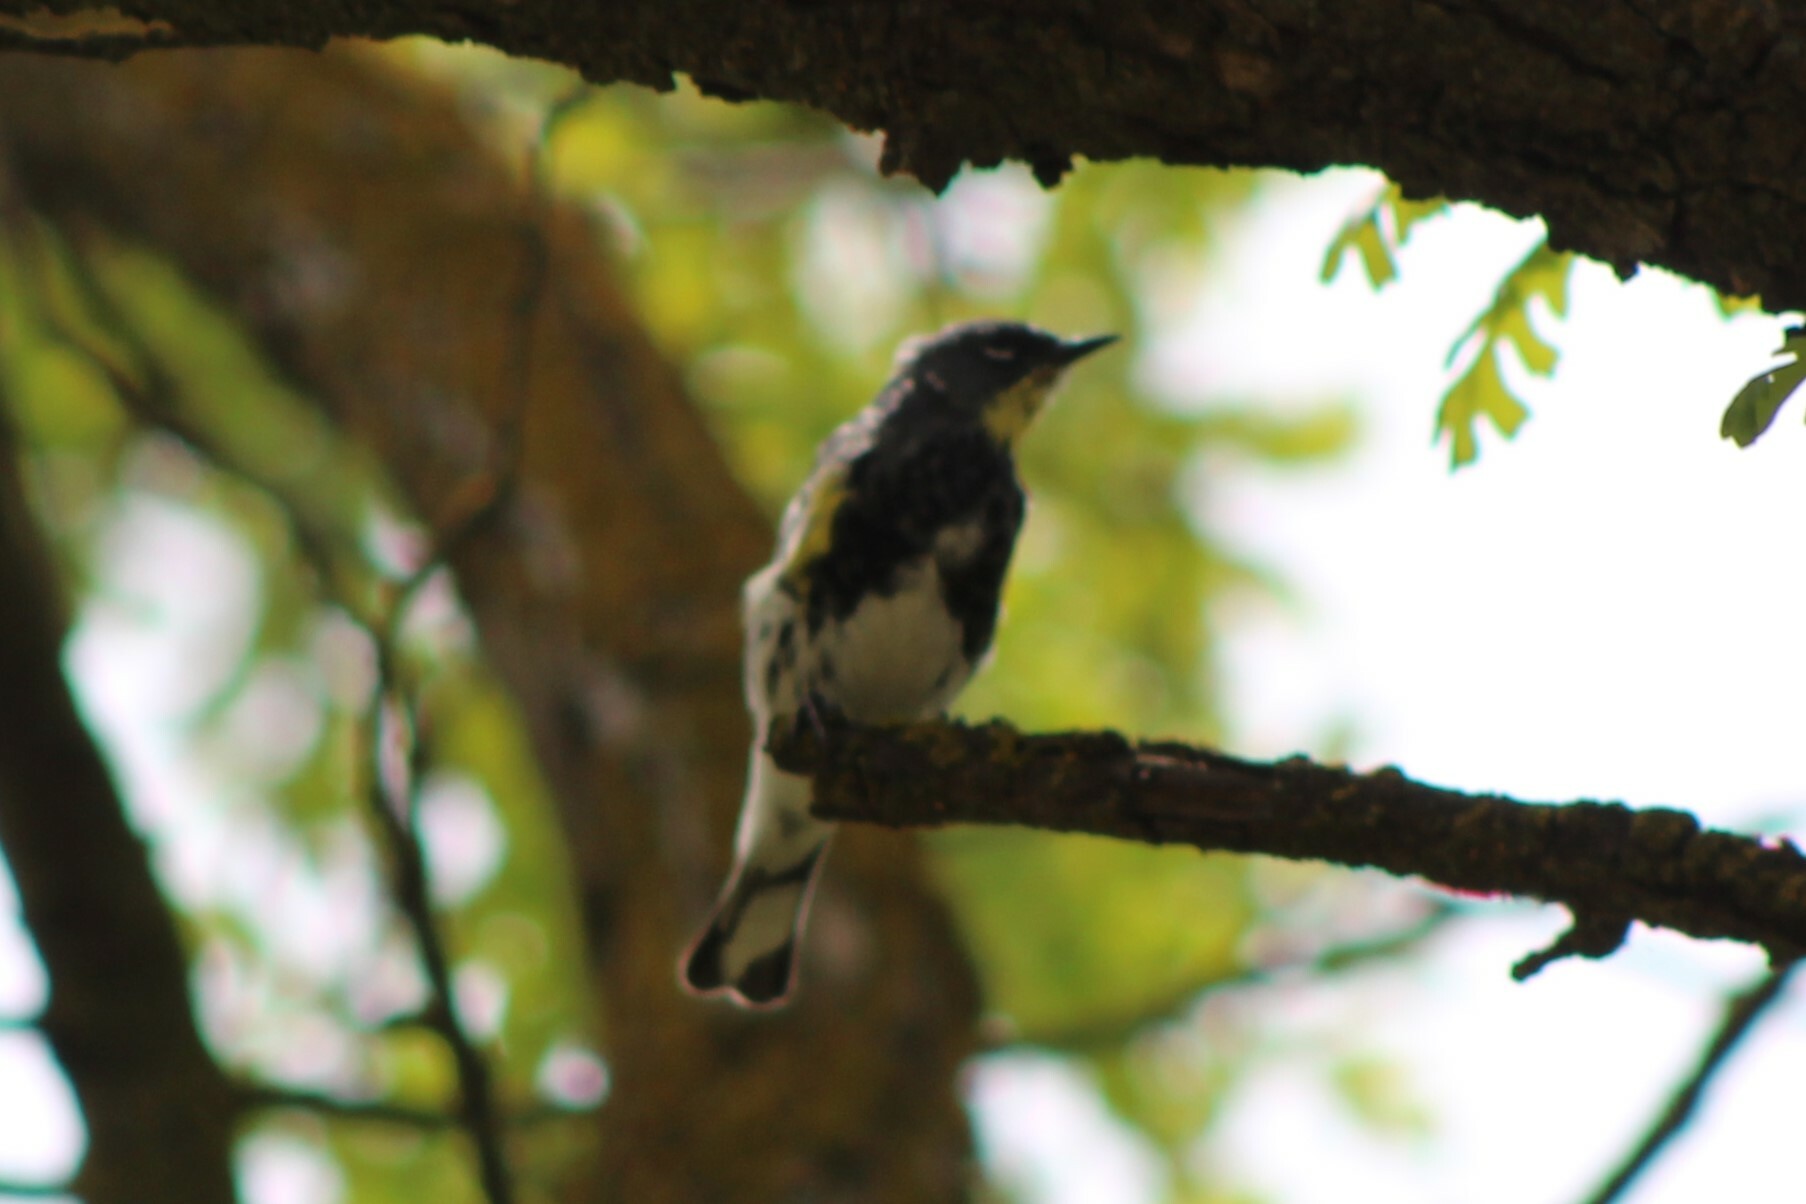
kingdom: Animalia
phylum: Chordata
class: Aves
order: Passeriformes
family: Parulidae
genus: Setophaga
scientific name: Setophaga auduboni
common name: Audubon's warbler
